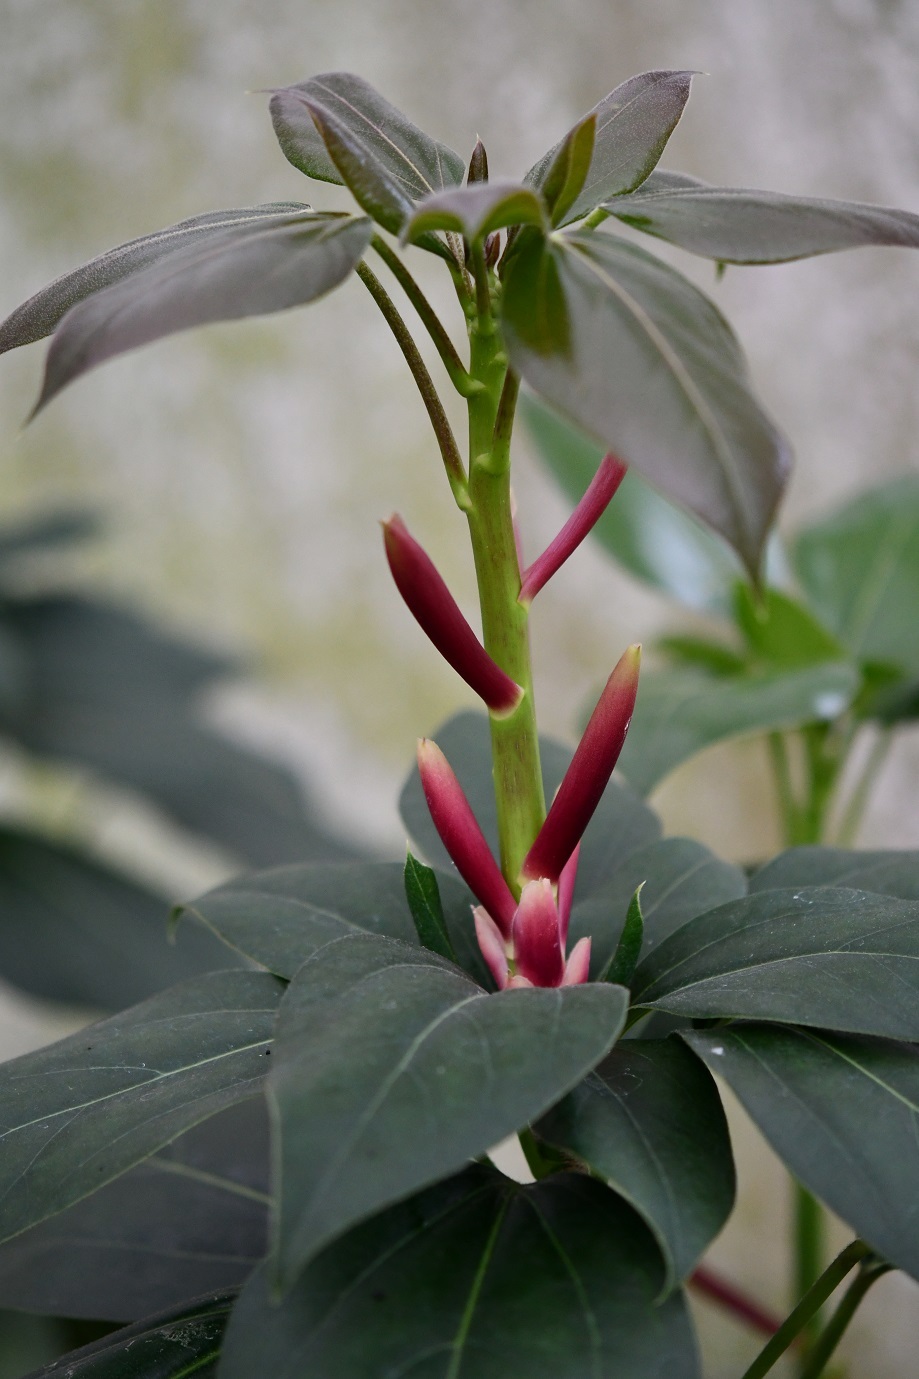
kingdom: Plantae
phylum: Tracheophyta
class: Magnoliopsida
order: Apiales
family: Araliaceae
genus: Oreopanax
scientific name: Oreopanax arcanus
